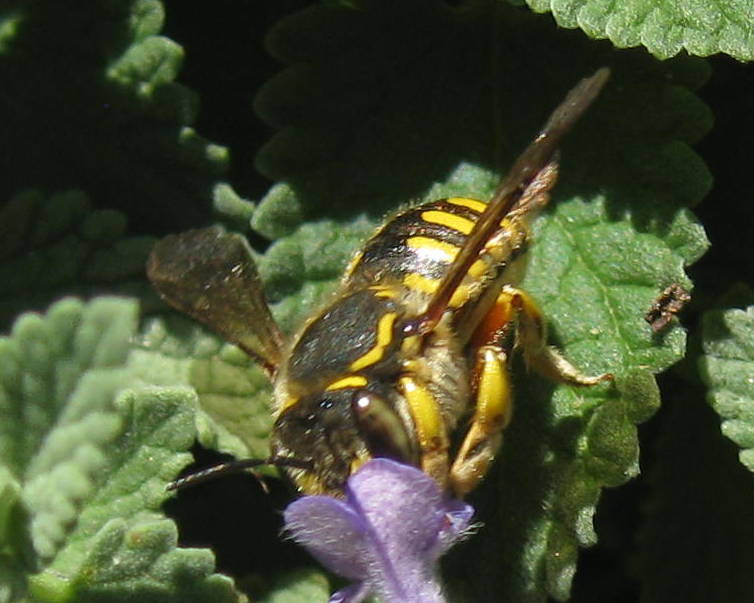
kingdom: Animalia
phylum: Arthropoda
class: Insecta
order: Hymenoptera
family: Megachilidae
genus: Anthidium
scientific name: Anthidium manicatum
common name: Wool carder bee
